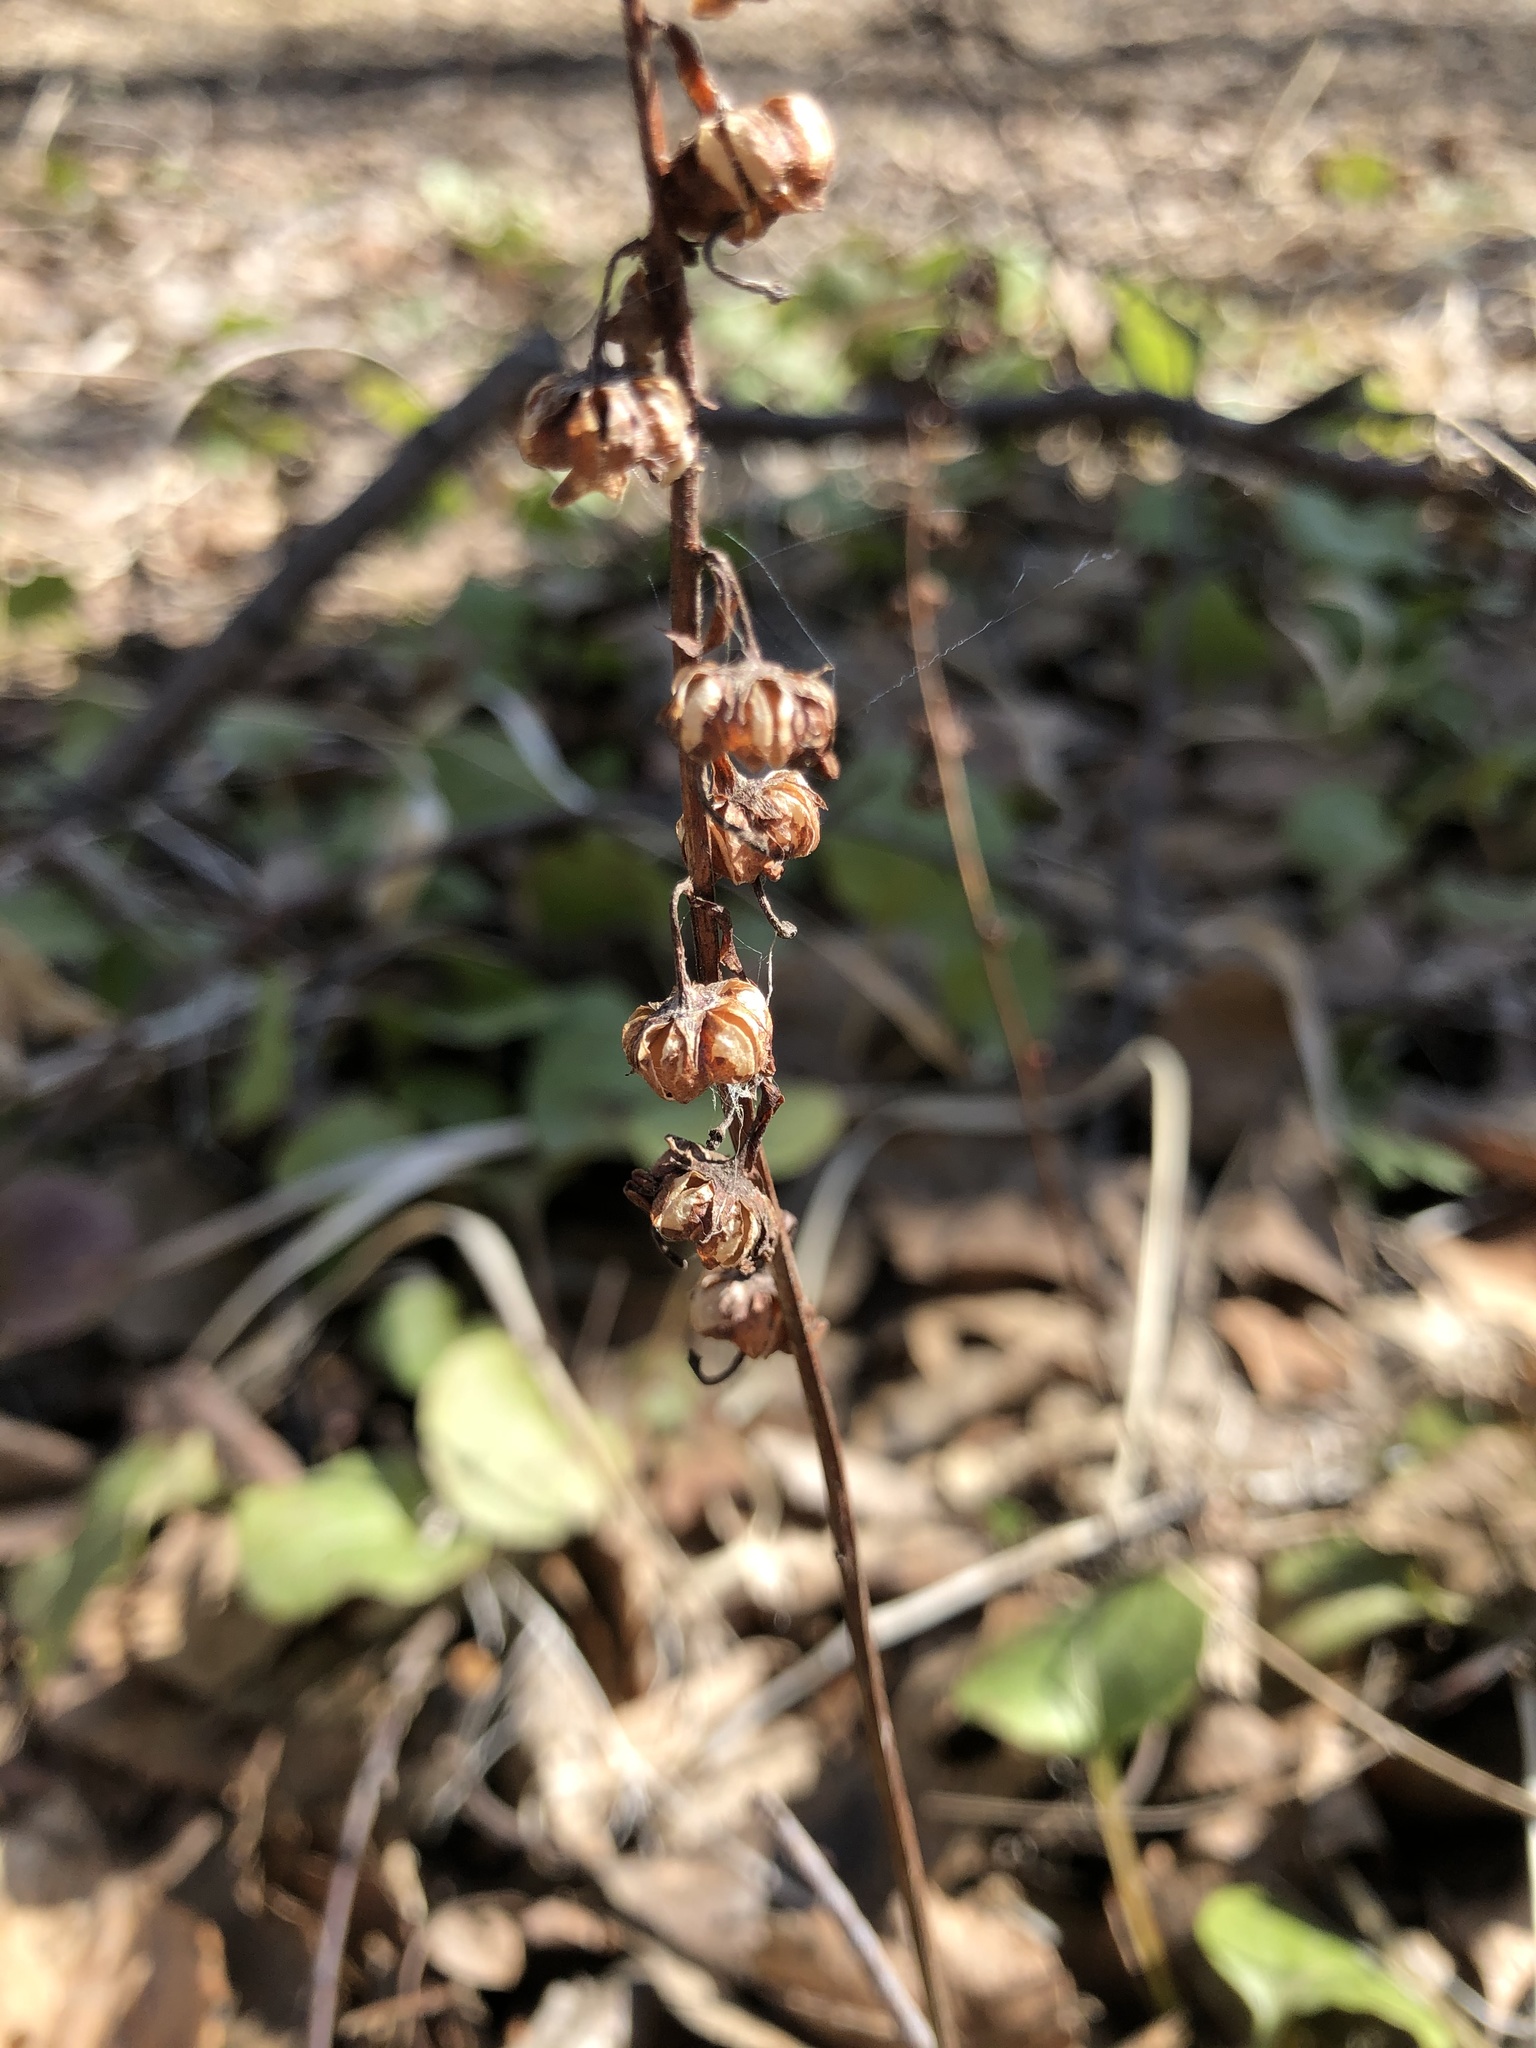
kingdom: Plantae
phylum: Tracheophyta
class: Magnoliopsida
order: Ericales
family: Ericaceae
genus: Pyrola
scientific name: Pyrola rotundifolia
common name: Round-leaved wintergreen
